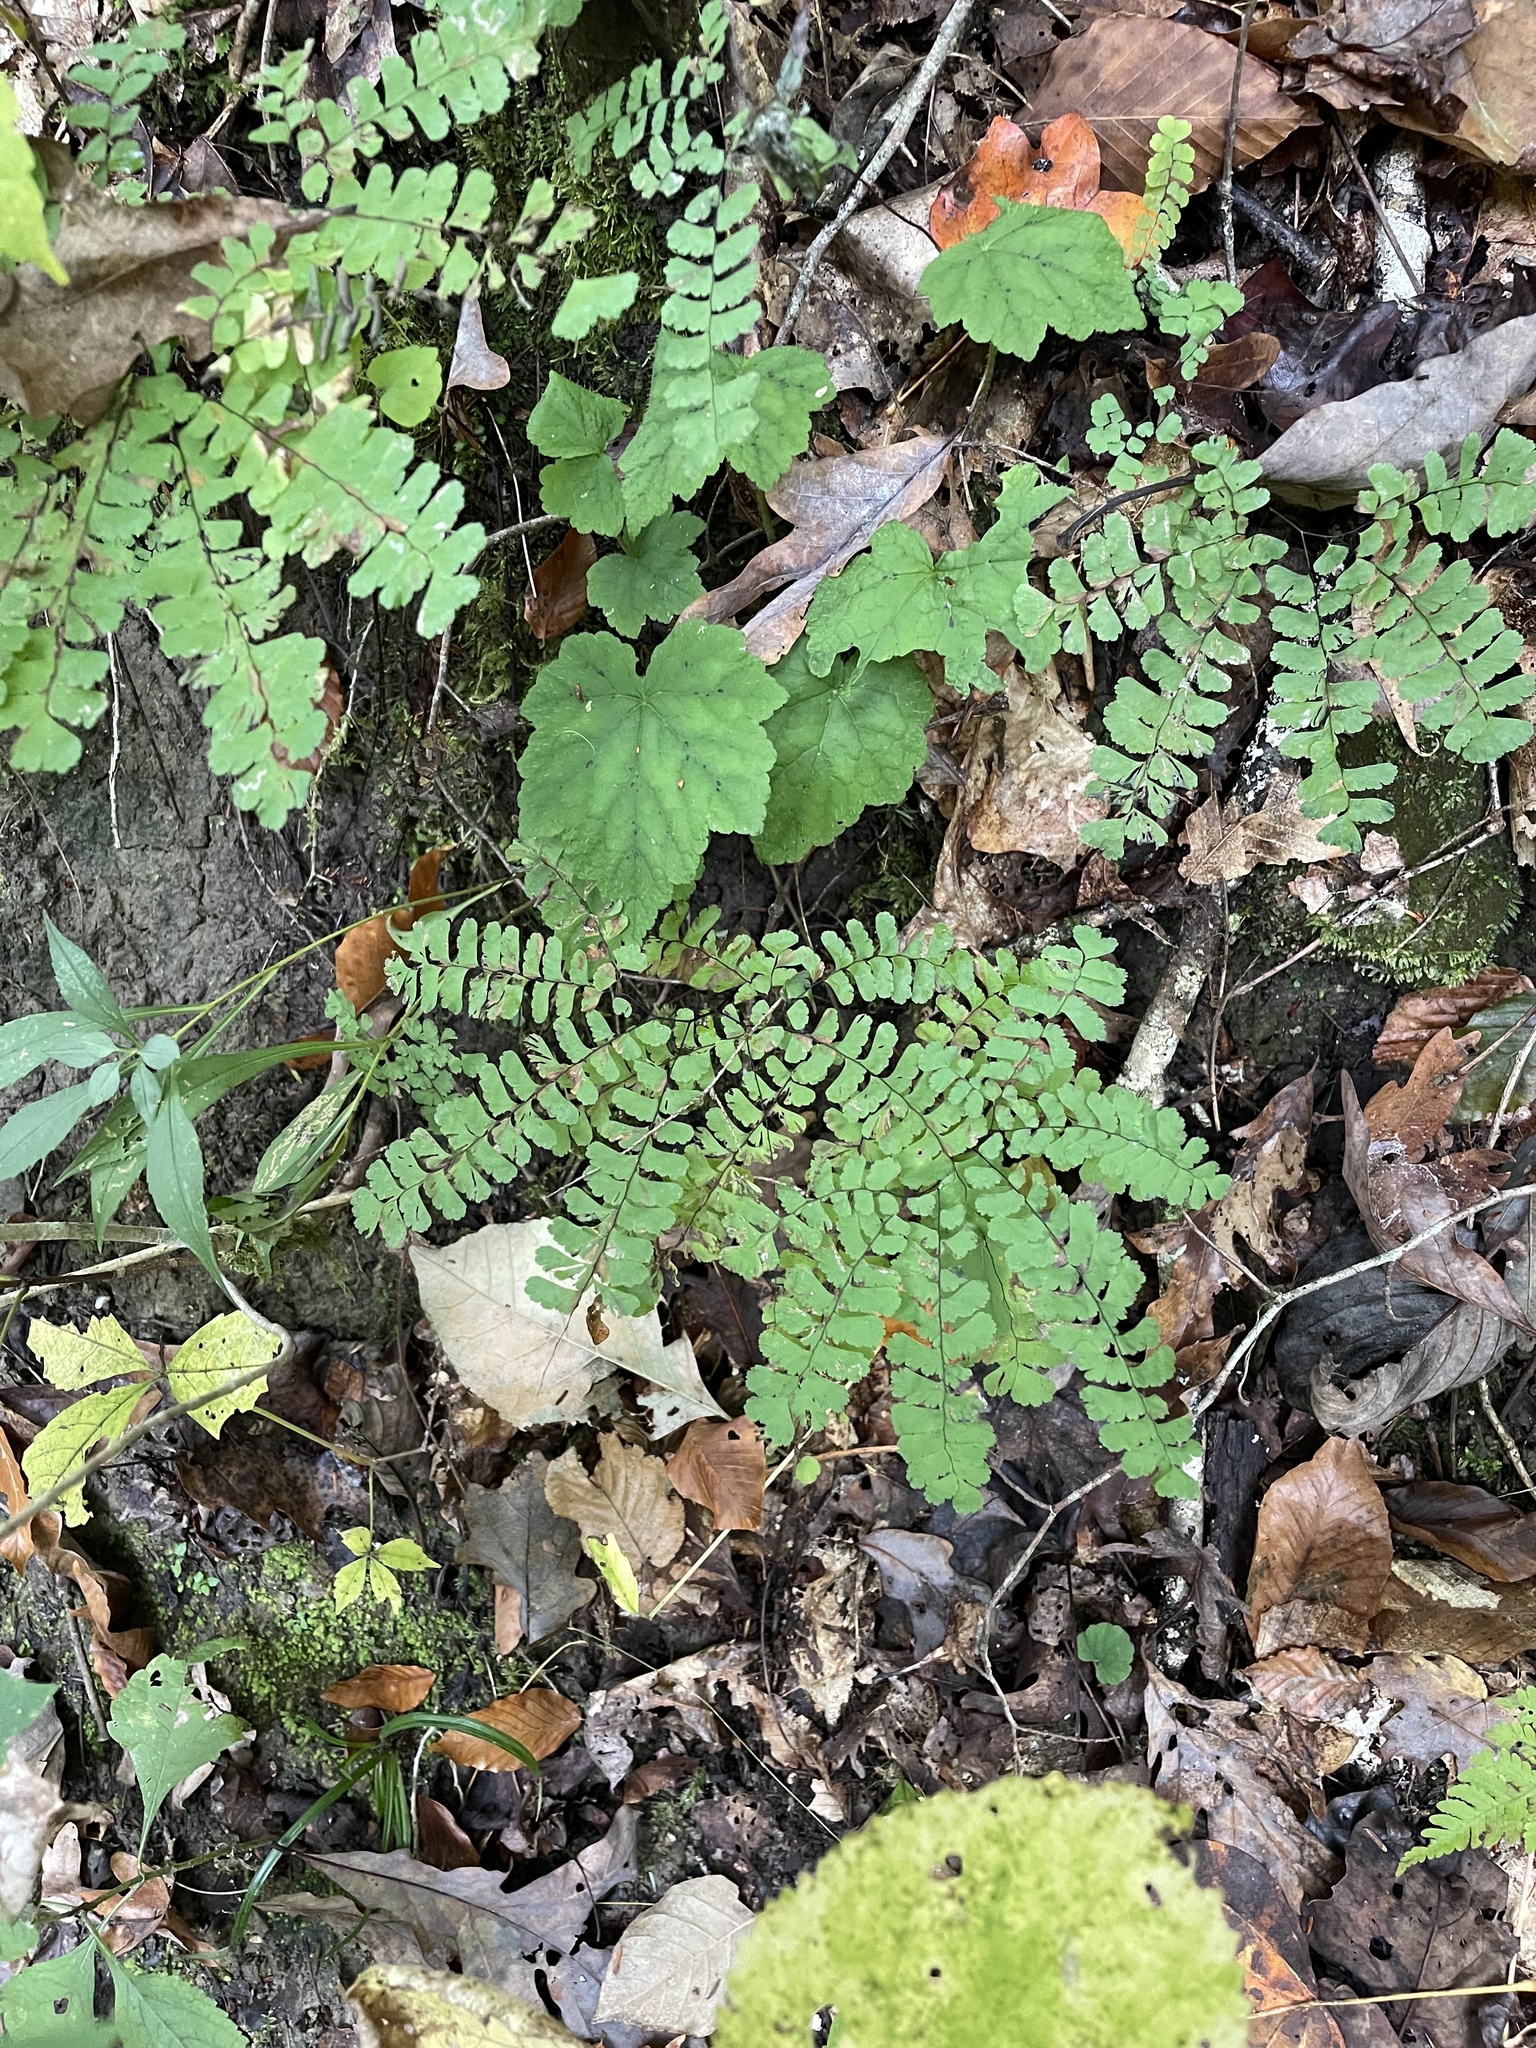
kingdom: Plantae
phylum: Tracheophyta
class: Polypodiopsida
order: Polypodiales
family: Pteridaceae
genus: Adiantum
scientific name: Adiantum pedatum
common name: Five-finger fern
